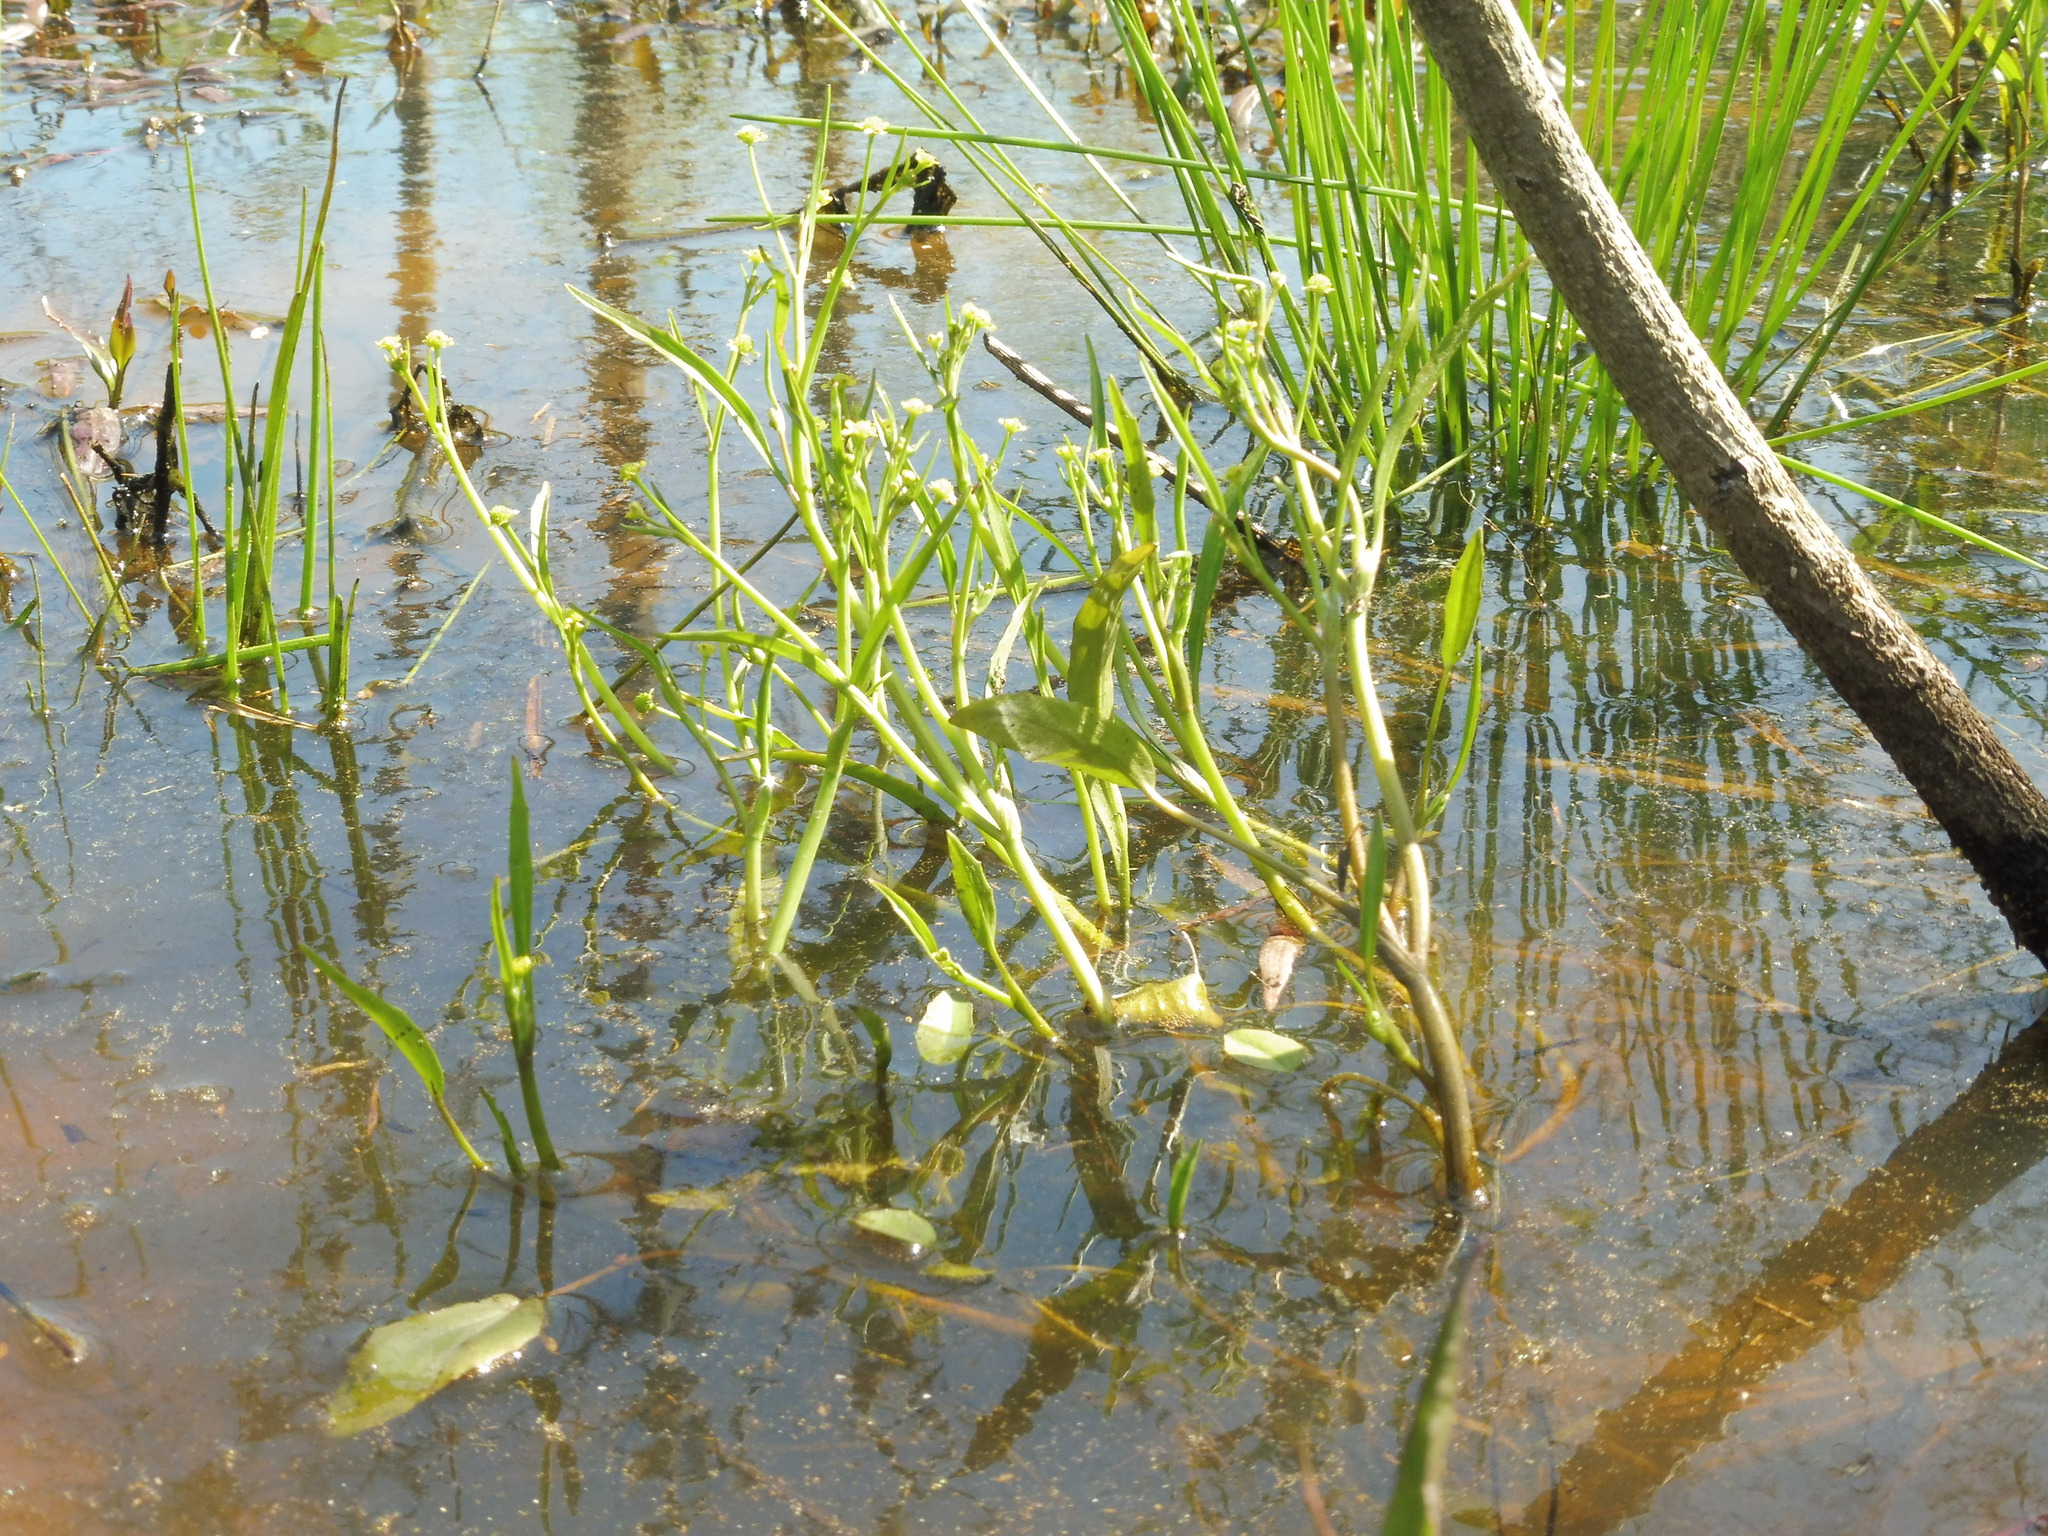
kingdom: Plantae
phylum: Tracheophyta
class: Magnoliopsida
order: Ranunculales
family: Ranunculaceae
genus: Ranunculus
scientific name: Ranunculus pusillus
